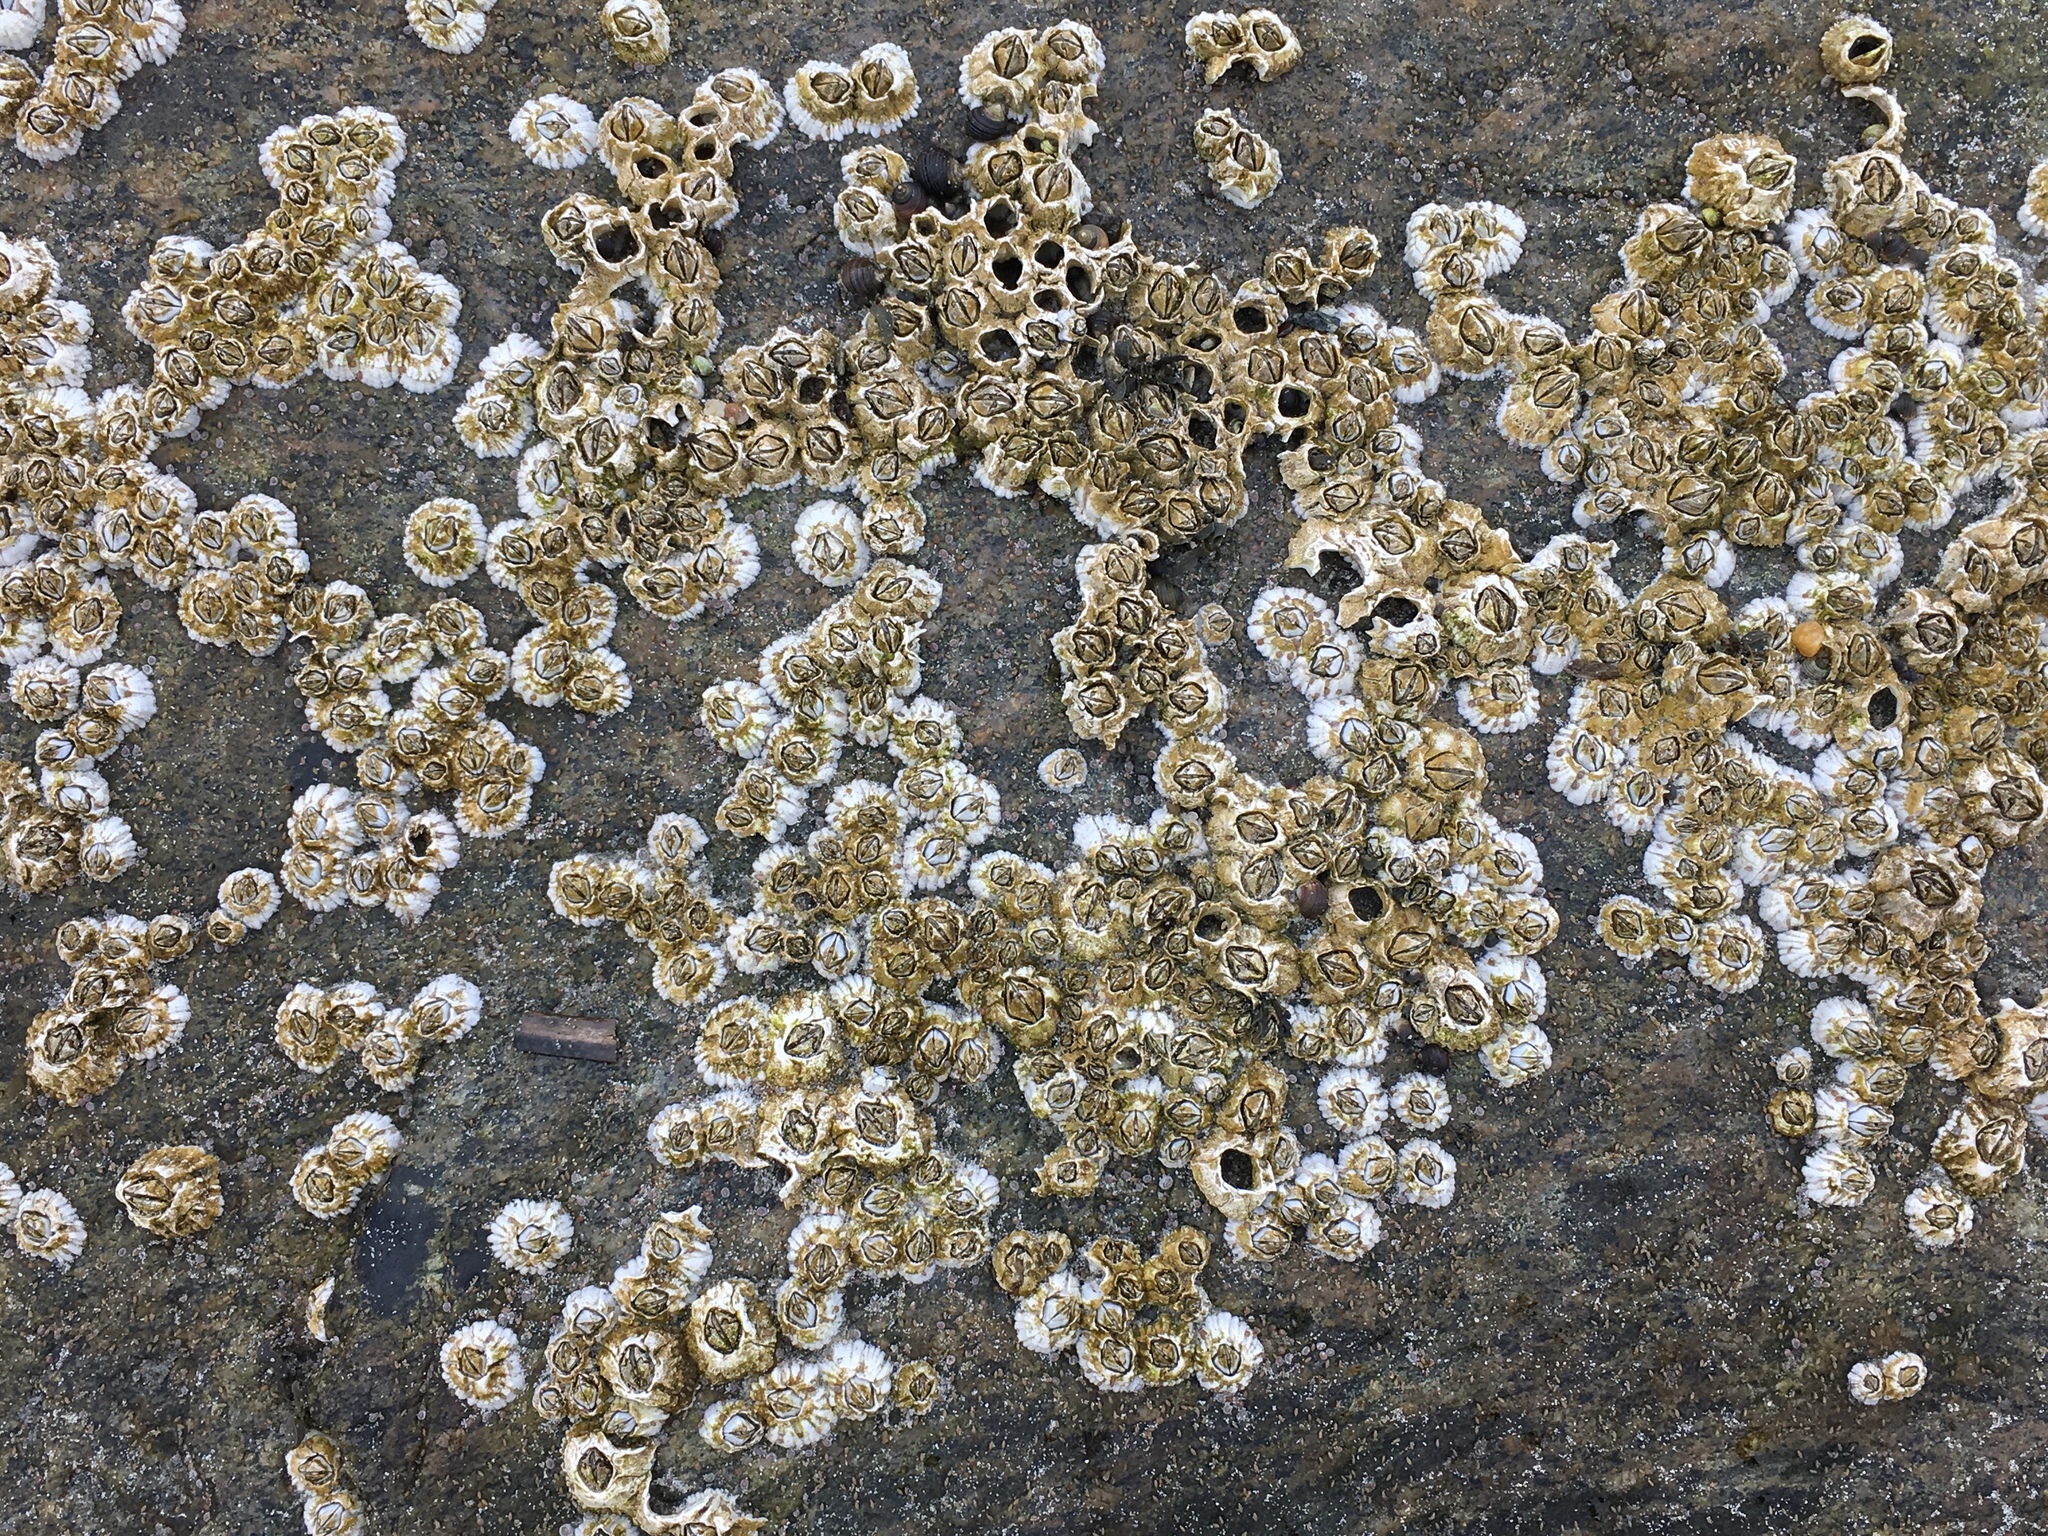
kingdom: Animalia
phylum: Arthropoda
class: Maxillopoda
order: Sessilia
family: Archaeobalanidae
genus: Semibalanus
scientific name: Semibalanus balanoides
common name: Acorn barnacle
